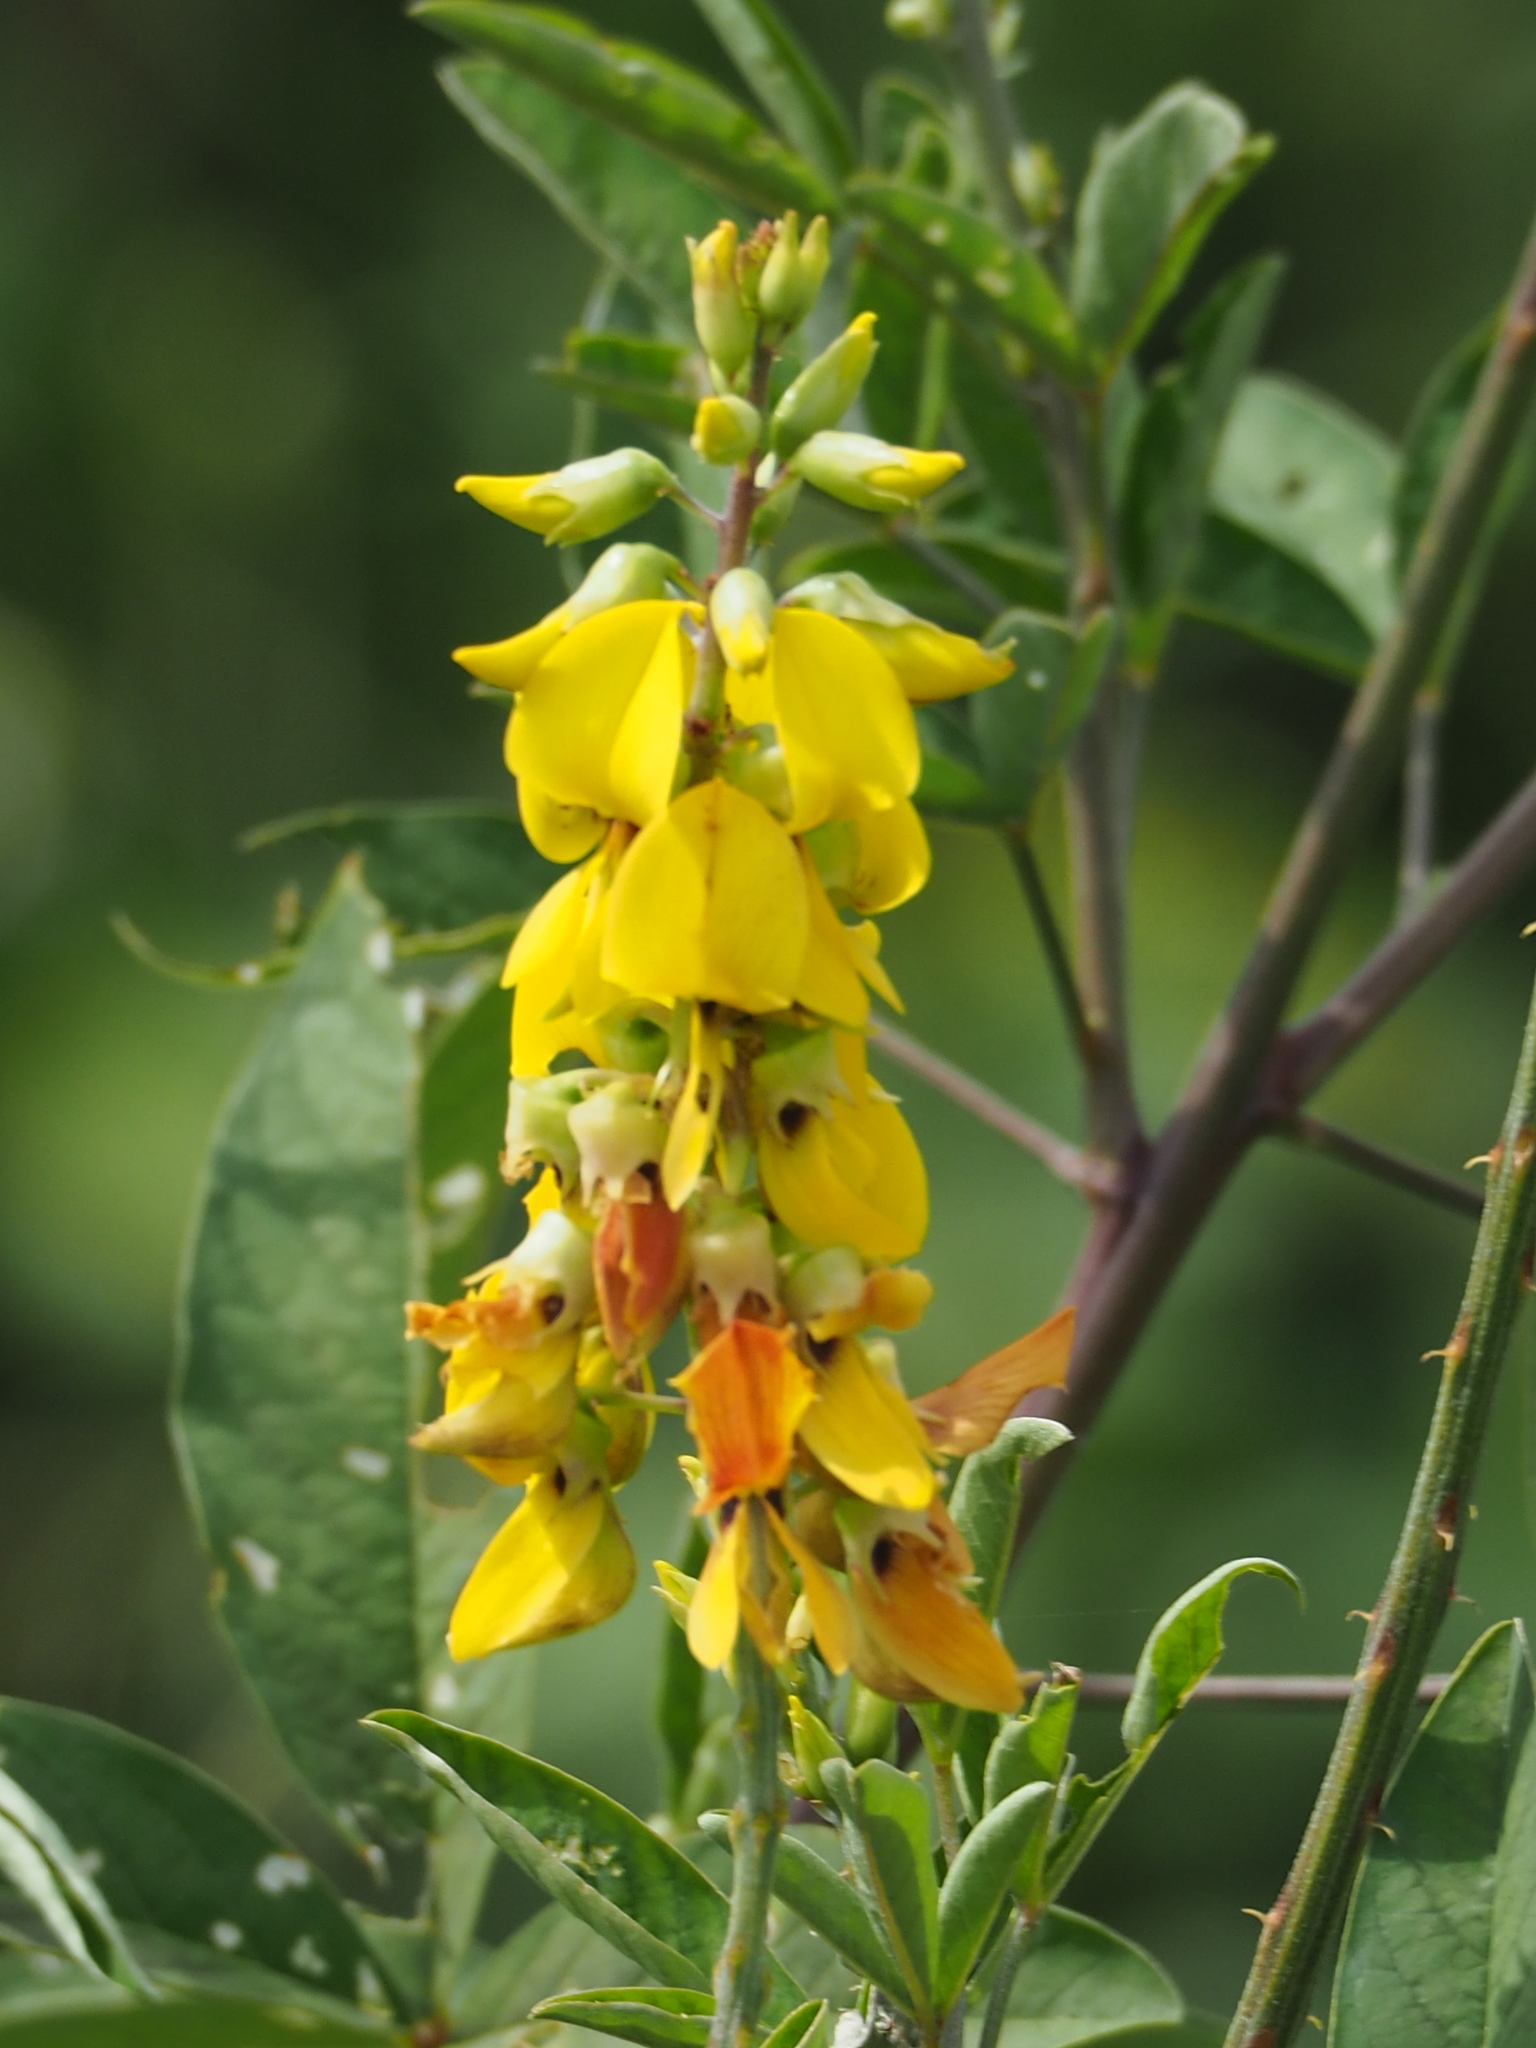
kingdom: Plantae
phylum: Tracheophyta
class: Magnoliopsida
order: Fabales
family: Fabaceae
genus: Crotalaria
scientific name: Crotalaria pallida
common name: Smooth rattlebox
